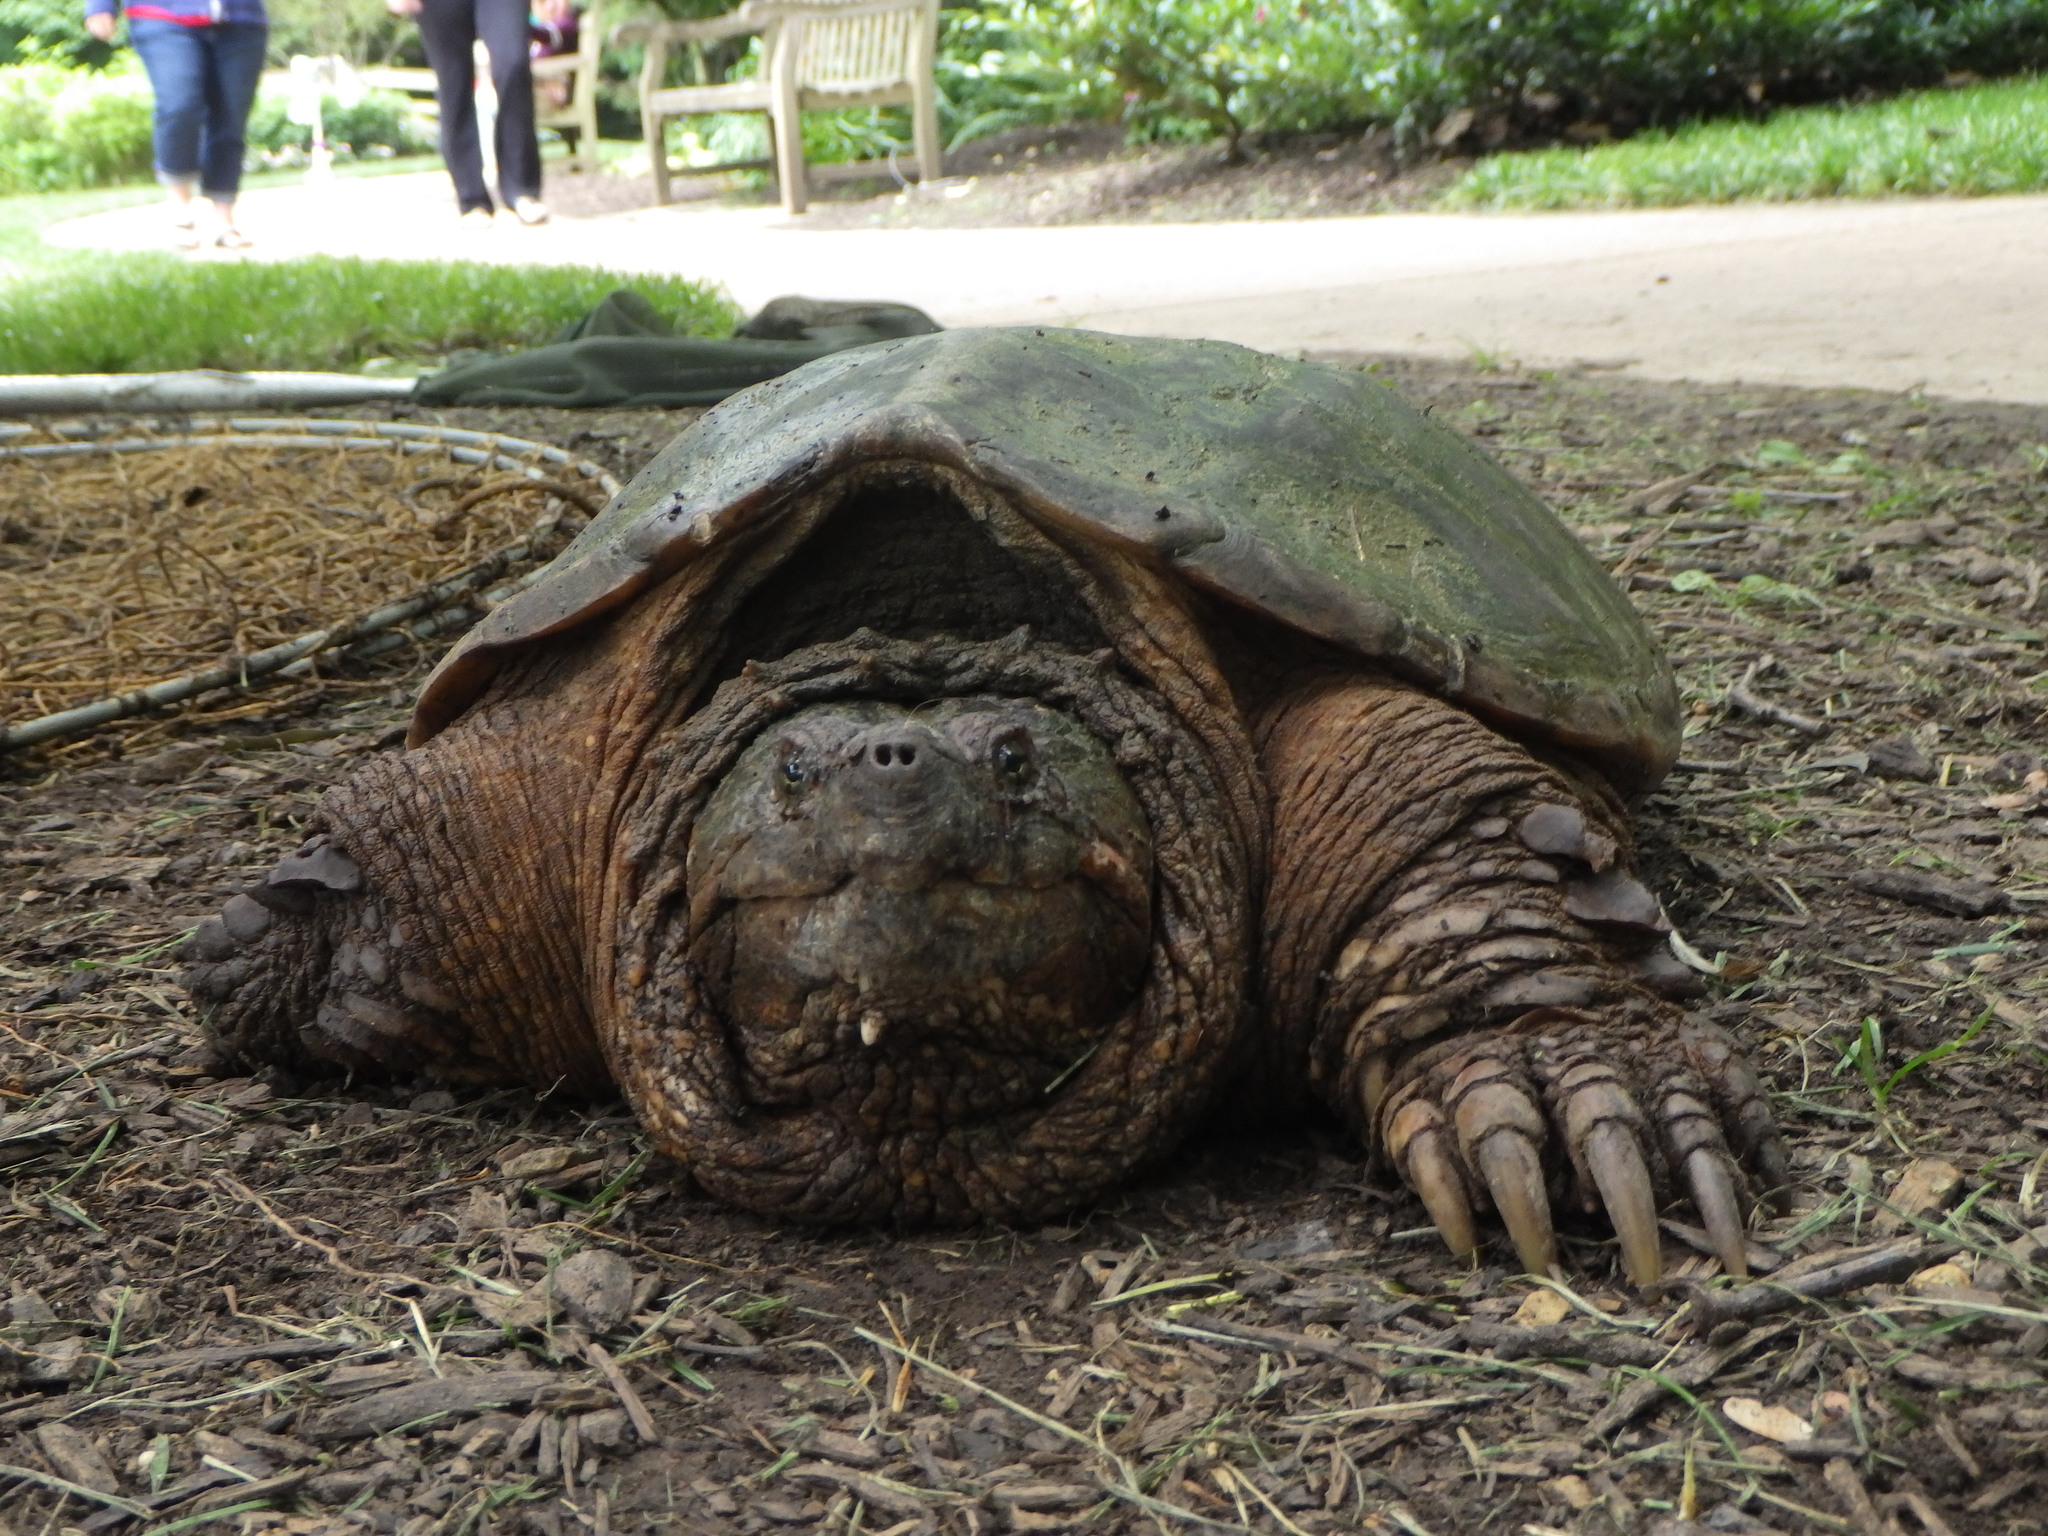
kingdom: Animalia
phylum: Chordata
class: Testudines
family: Chelydridae
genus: Chelydra
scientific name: Chelydra serpentina
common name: Common snapping turtle
